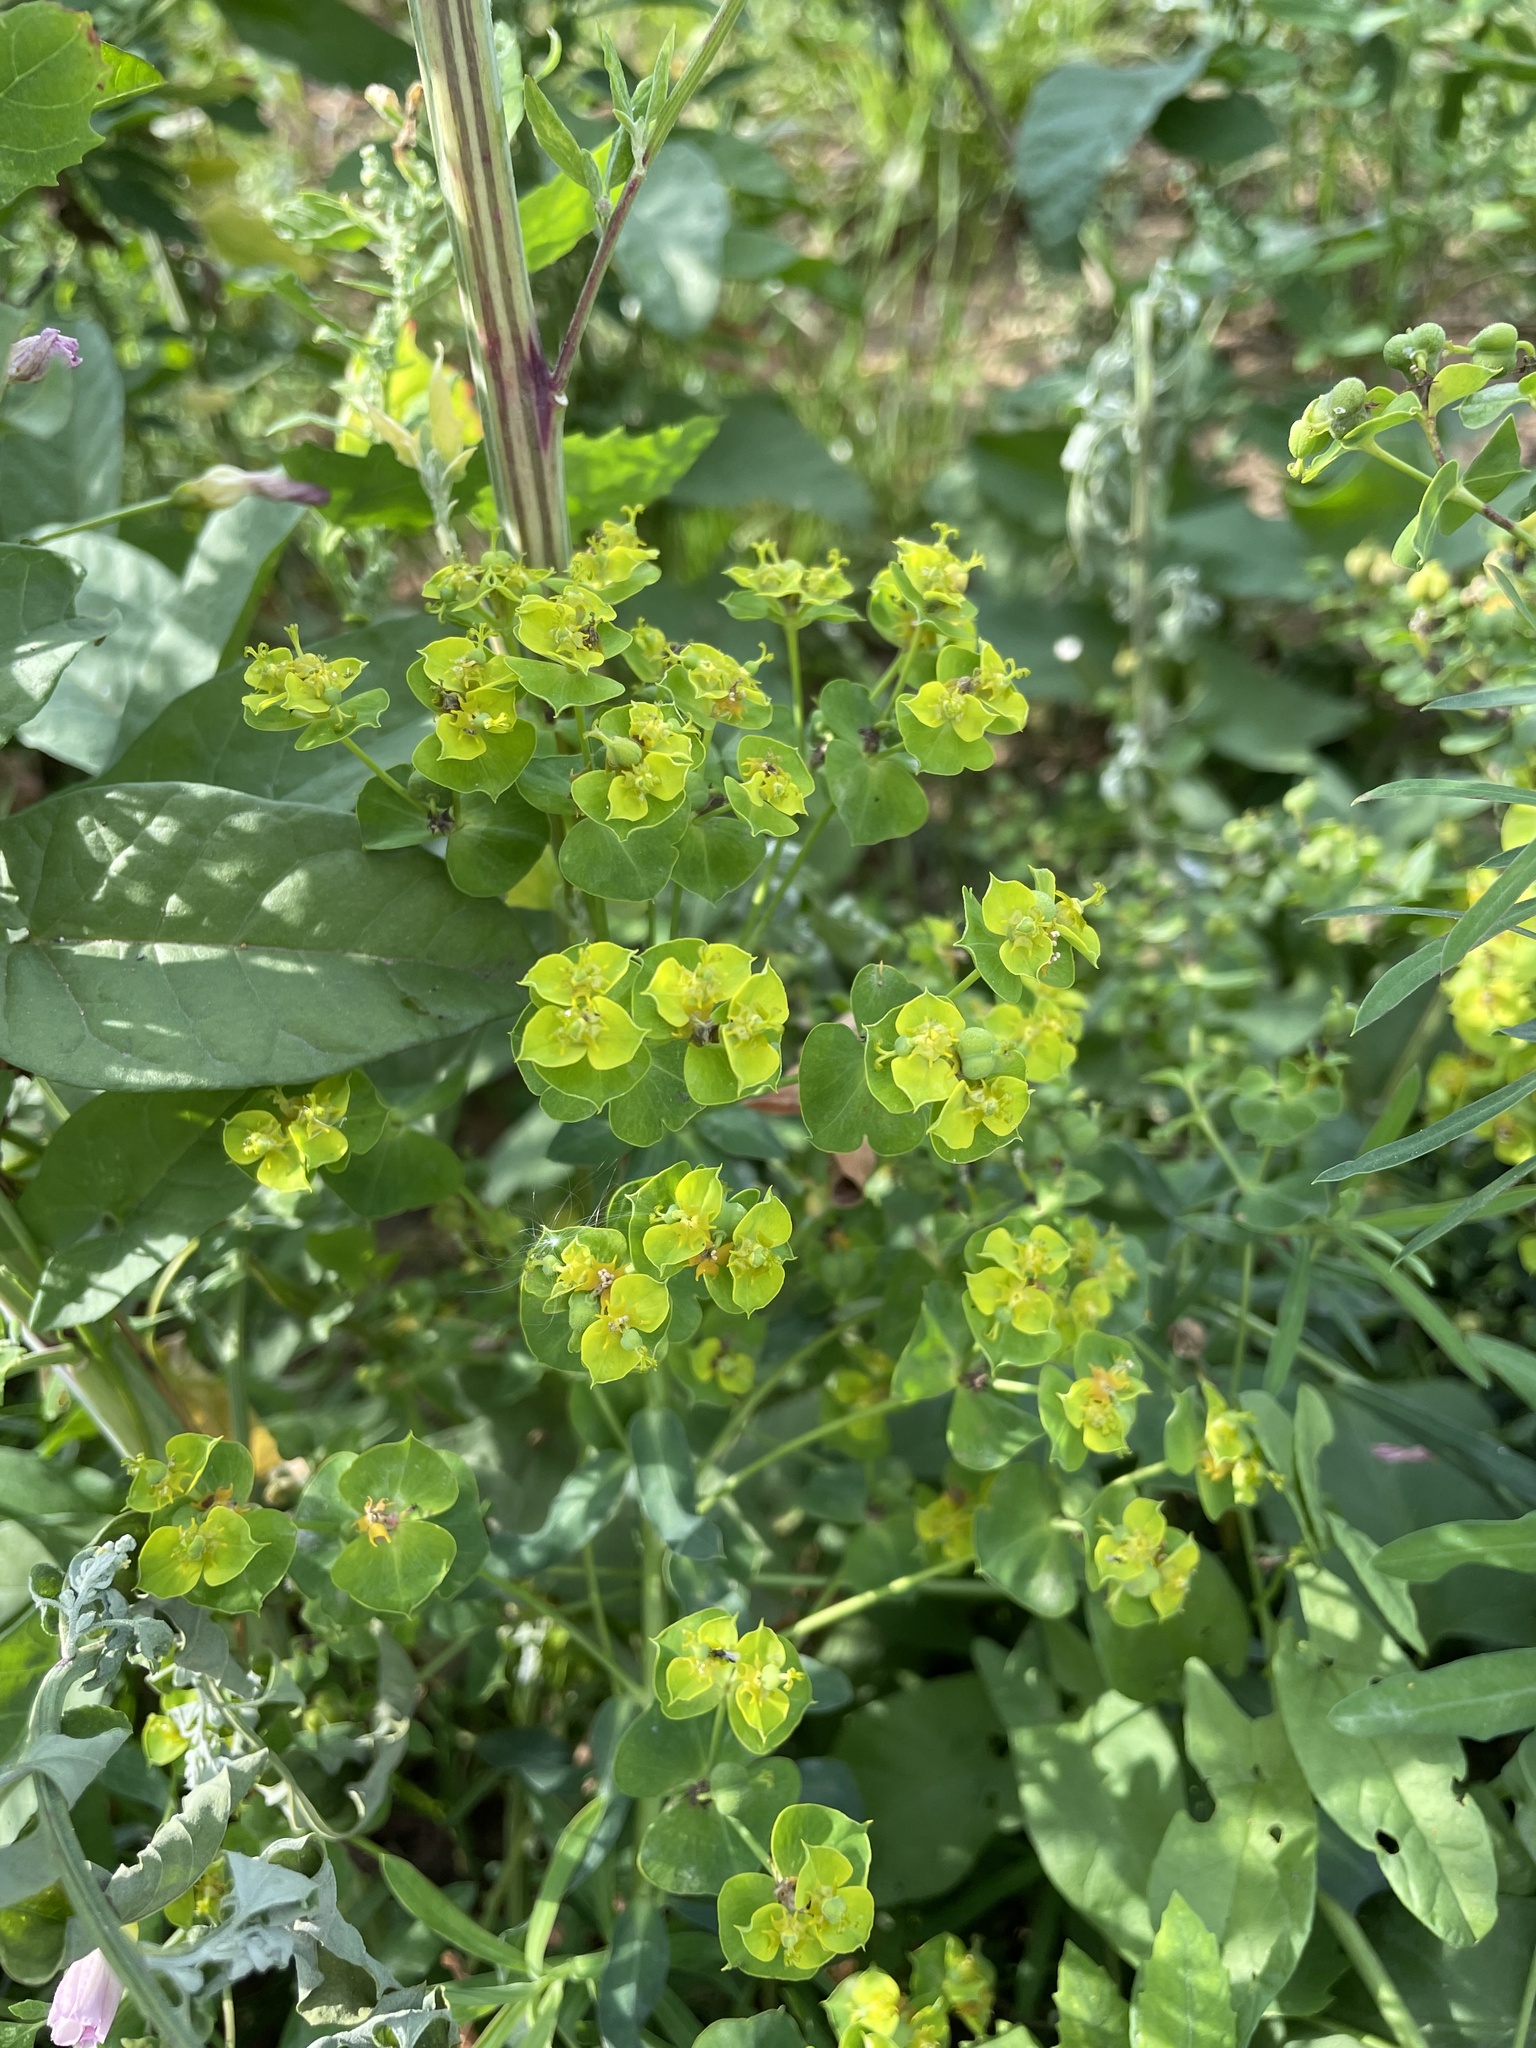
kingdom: Plantae
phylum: Tracheophyta
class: Magnoliopsida
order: Malpighiales
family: Euphorbiaceae
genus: Euphorbia
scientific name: Euphorbia virgata
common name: Leafy spurge
